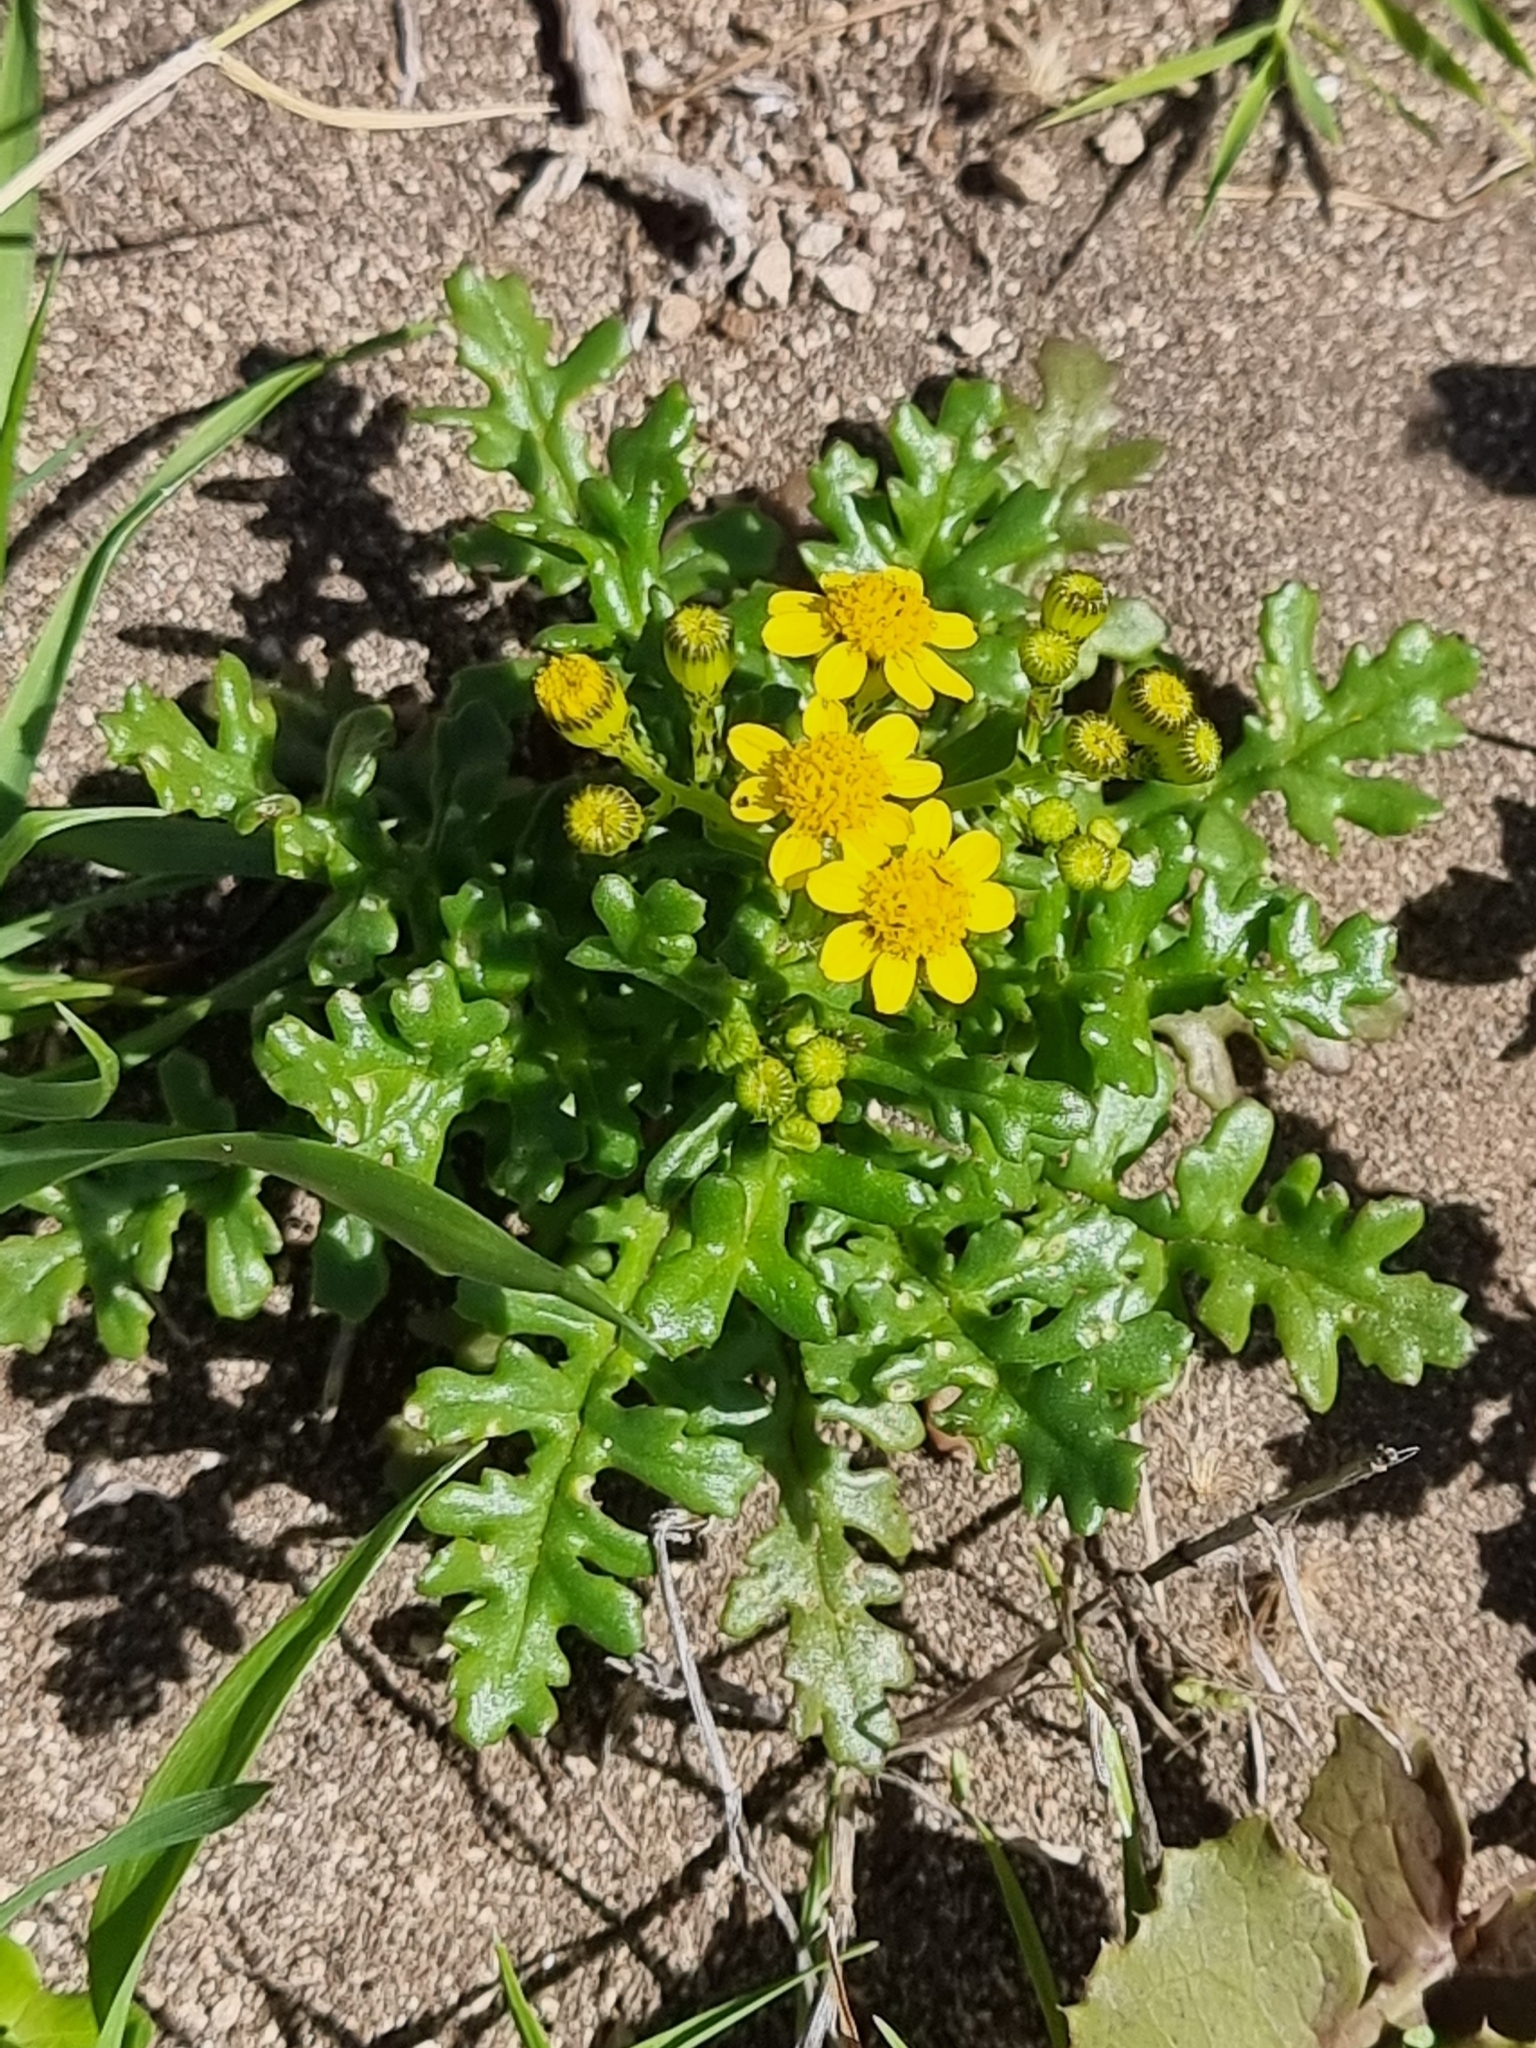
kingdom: Plantae
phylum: Tracheophyta
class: Magnoliopsida
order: Asterales
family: Asteraceae
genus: Senecio
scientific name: Senecio incrassatus
